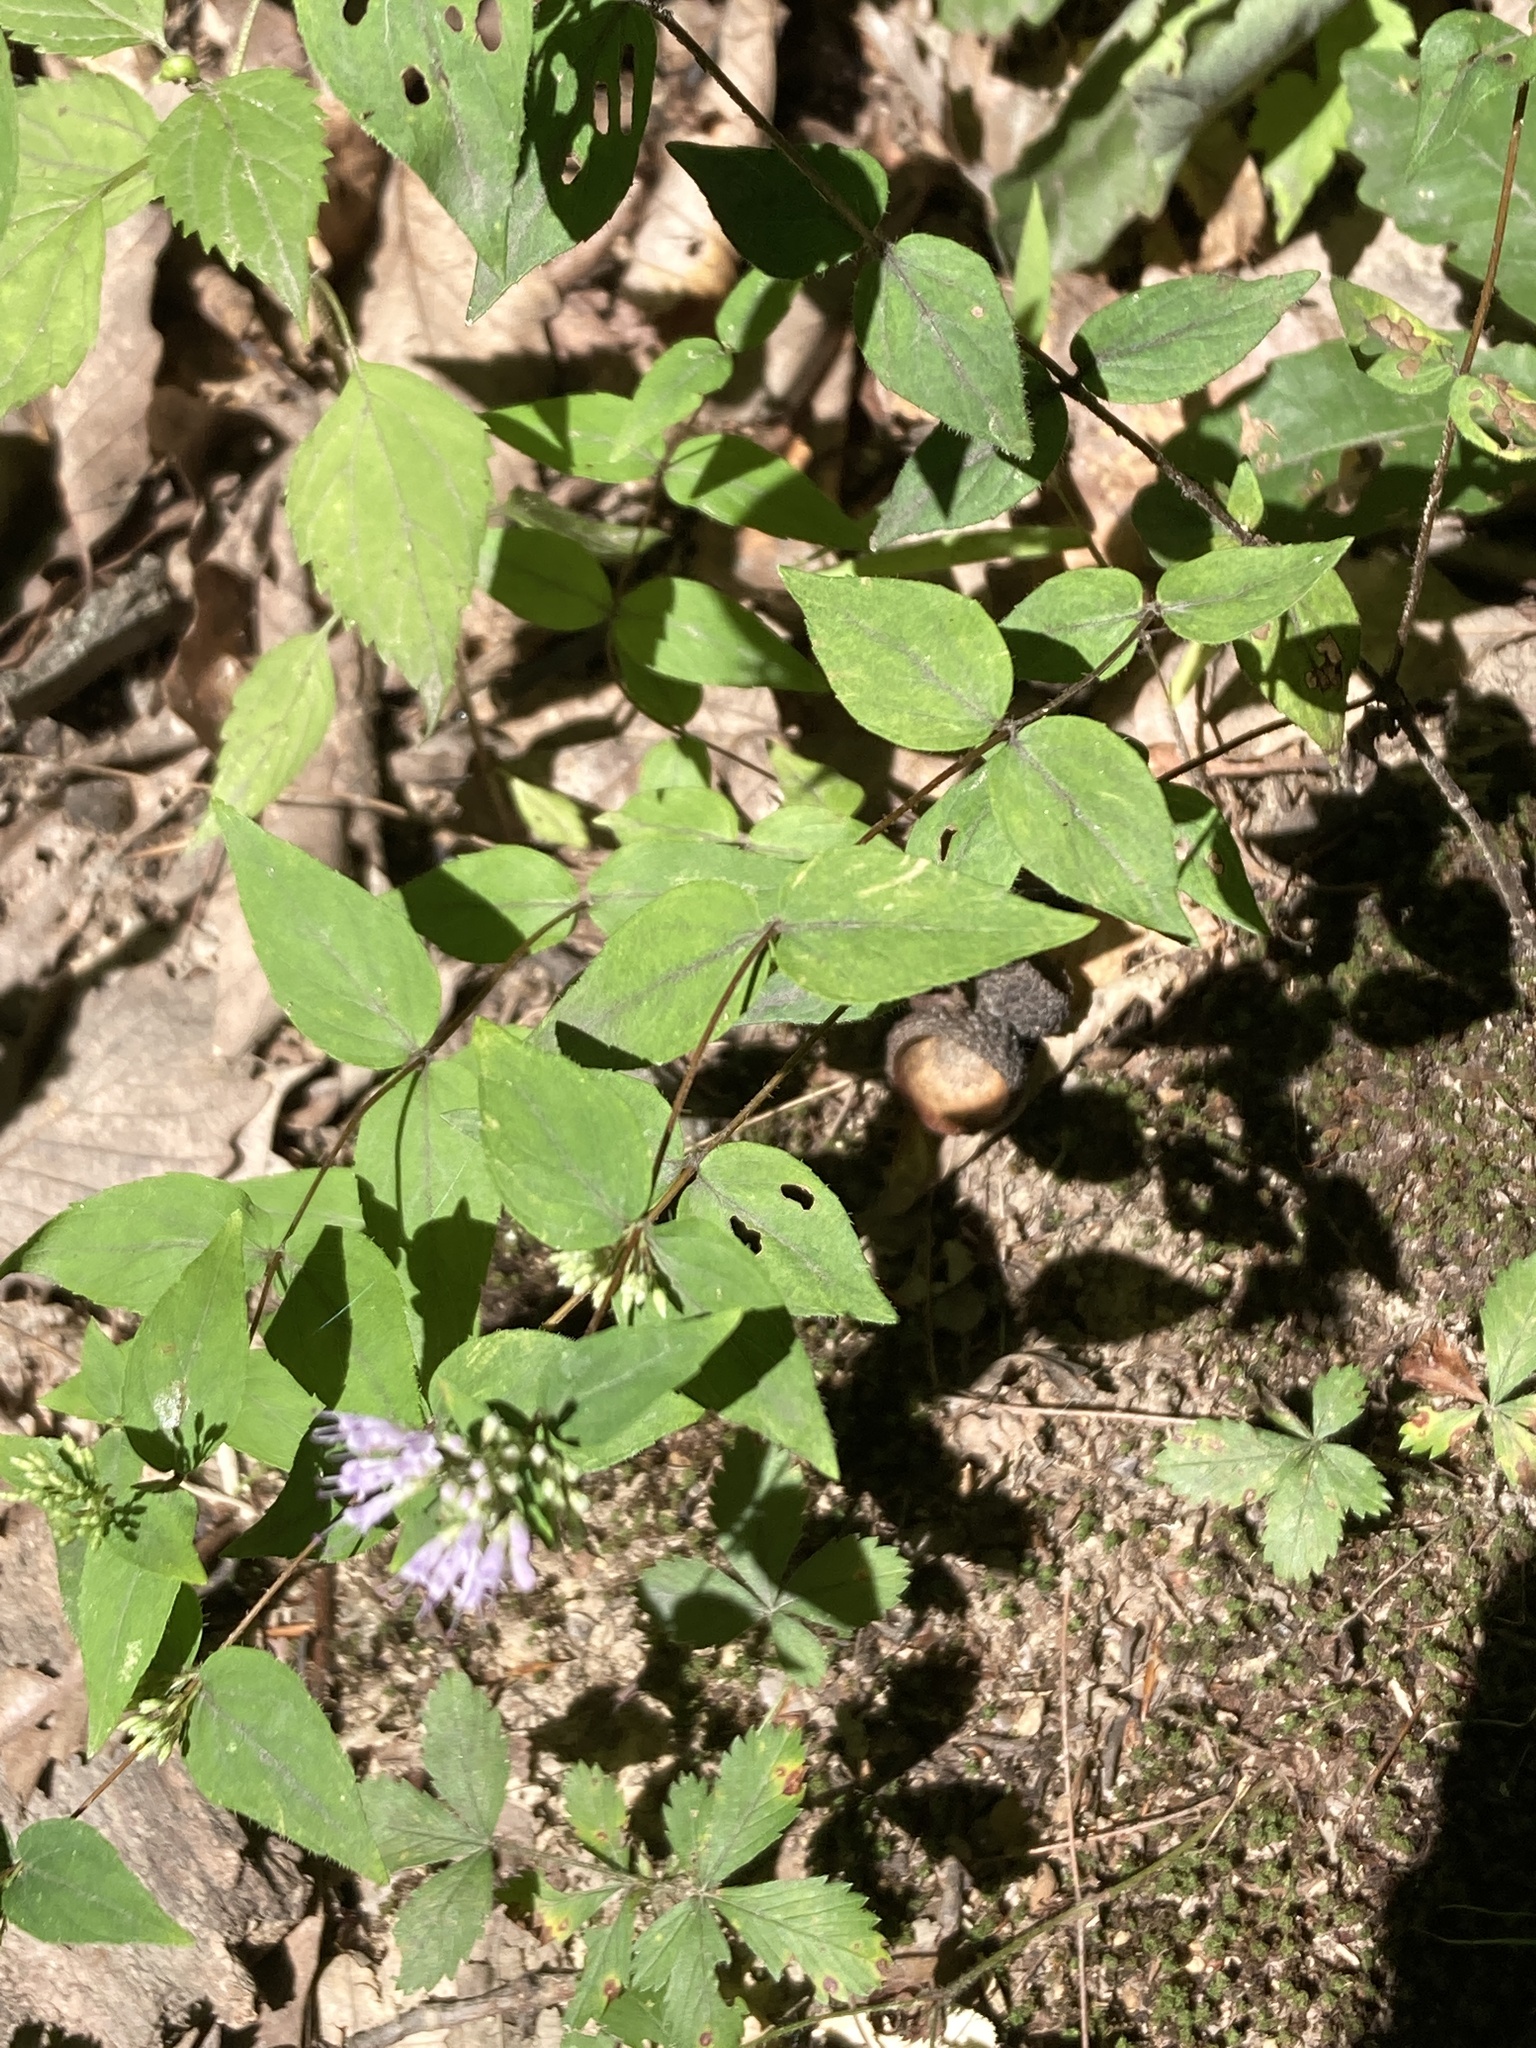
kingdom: Plantae
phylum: Tracheophyta
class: Magnoliopsida
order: Lamiales
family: Lamiaceae
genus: Cunila
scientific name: Cunila origanoides
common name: American dittany
